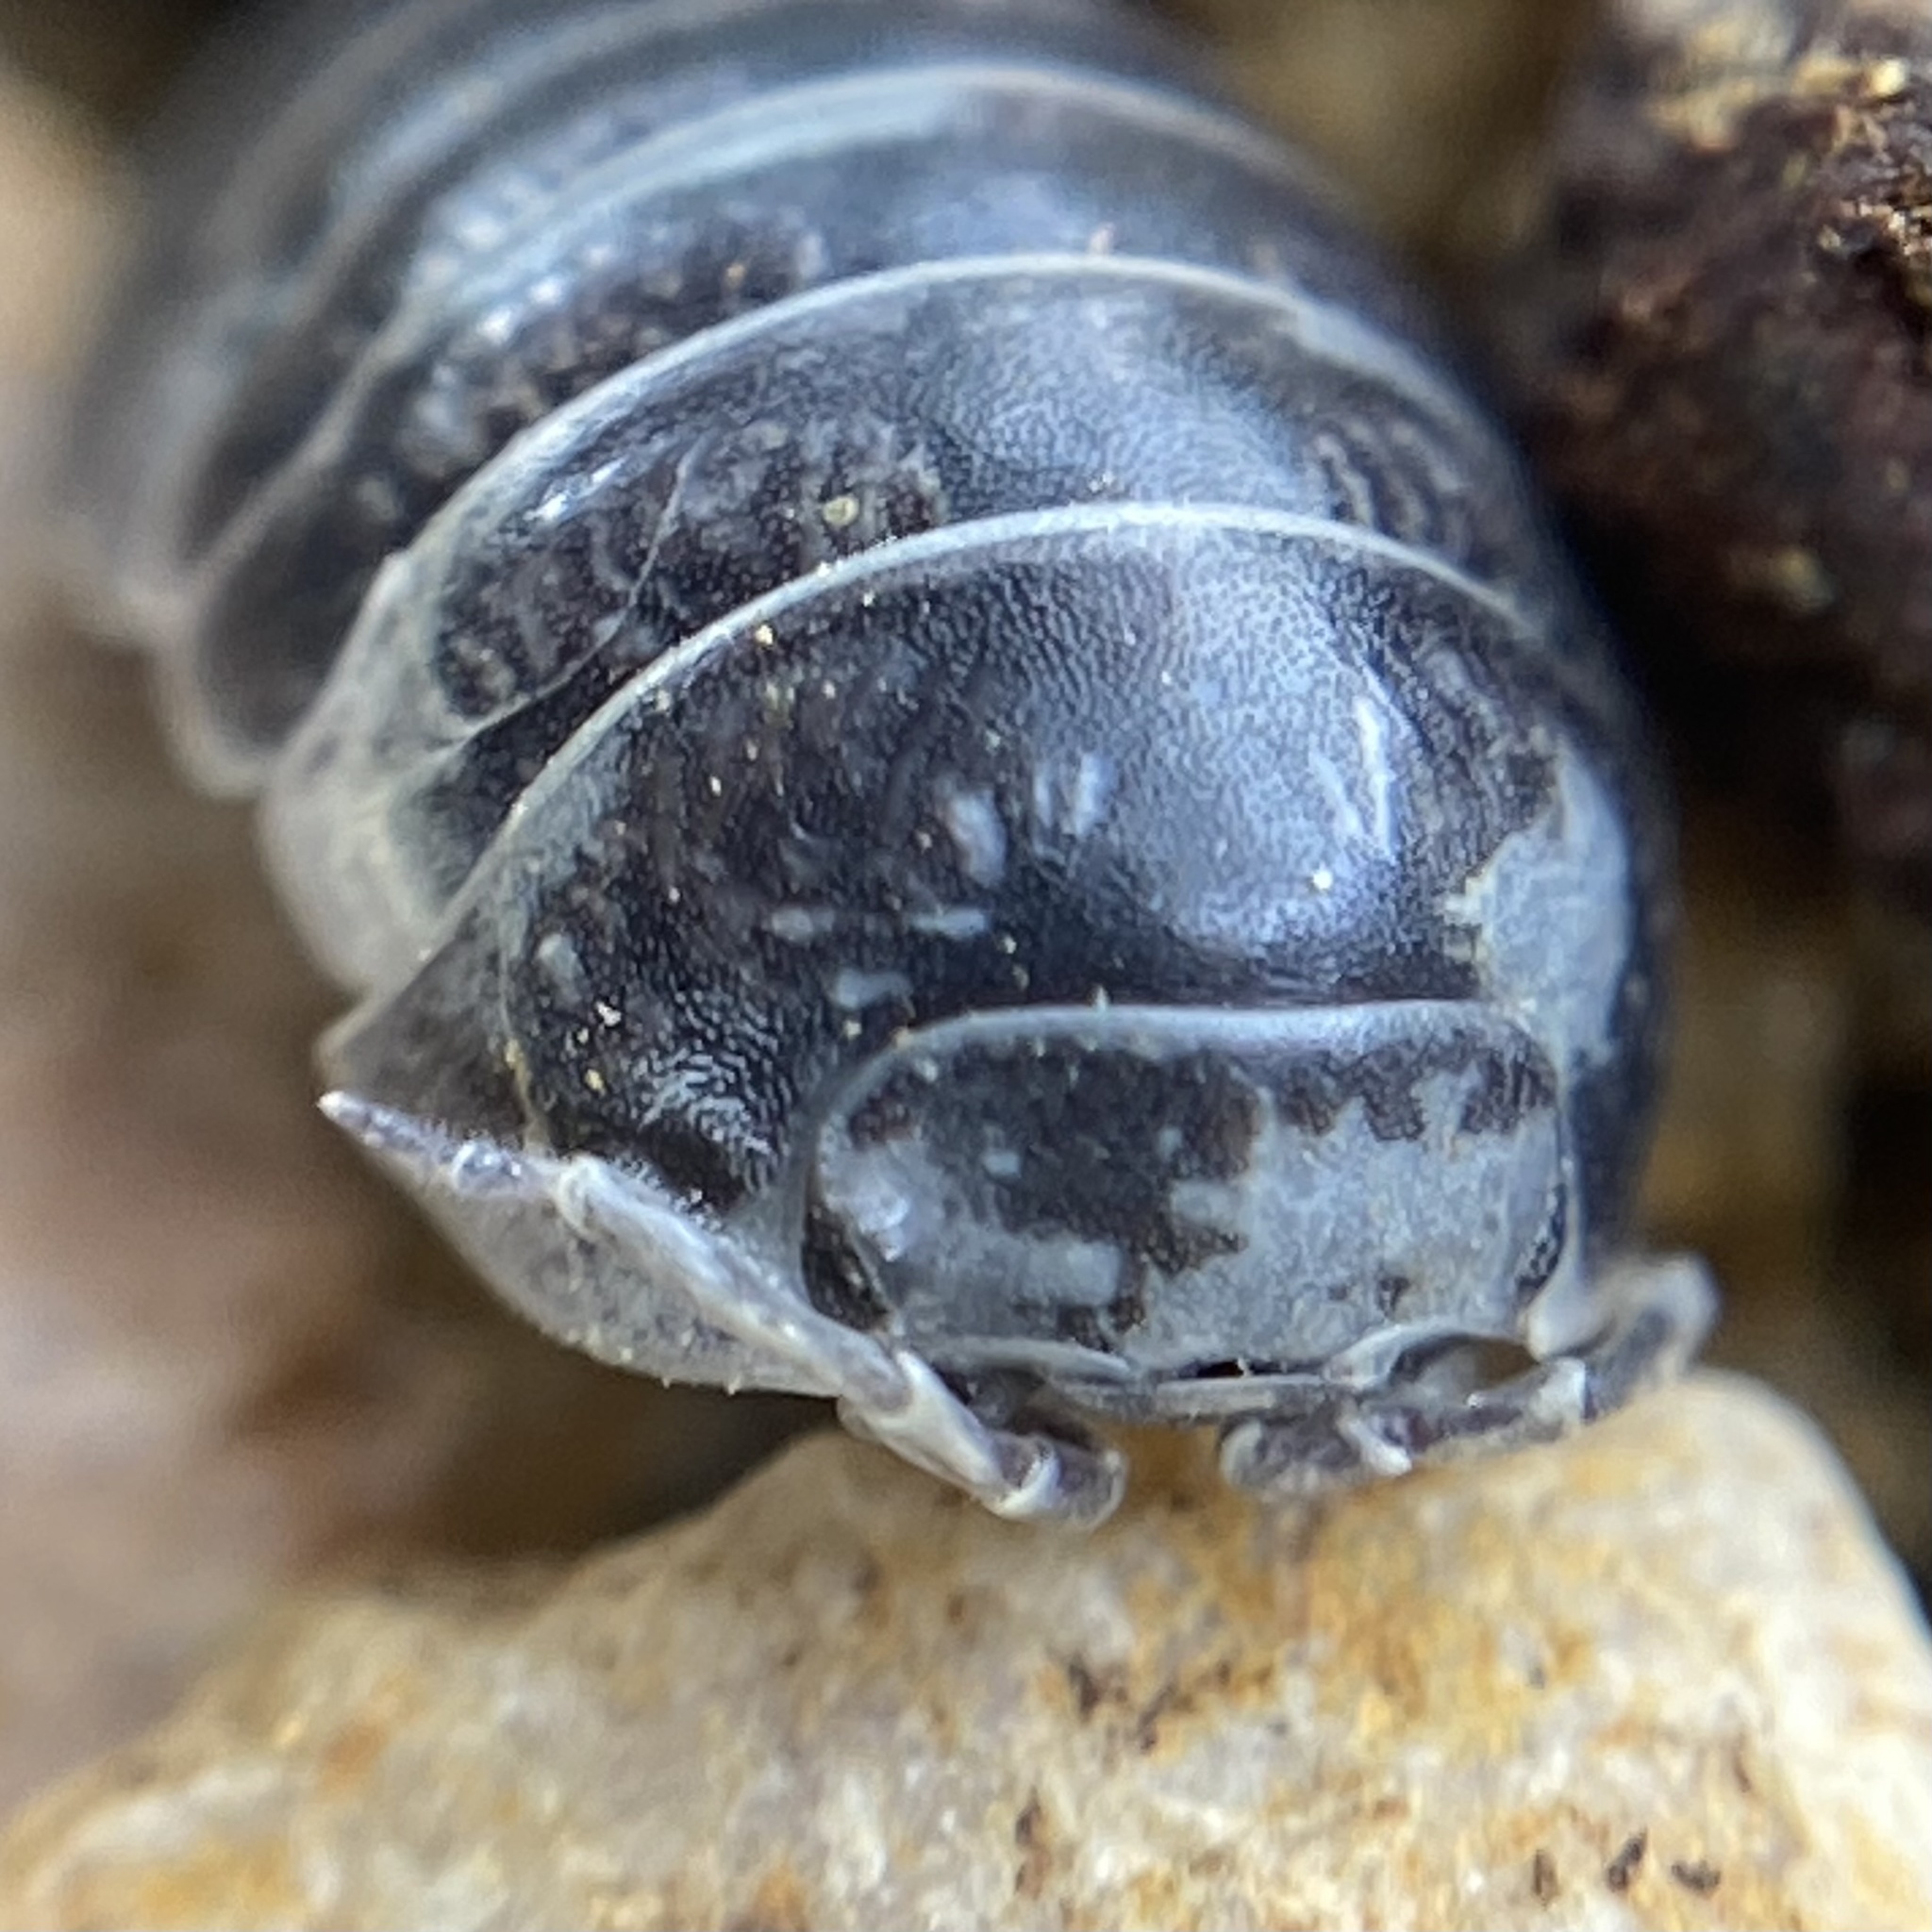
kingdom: Animalia
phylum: Arthropoda
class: Malacostraca
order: Isopoda
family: Armadillidiidae
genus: Armadillidium
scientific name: Armadillidium vulgare
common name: Common pill woodlouse
